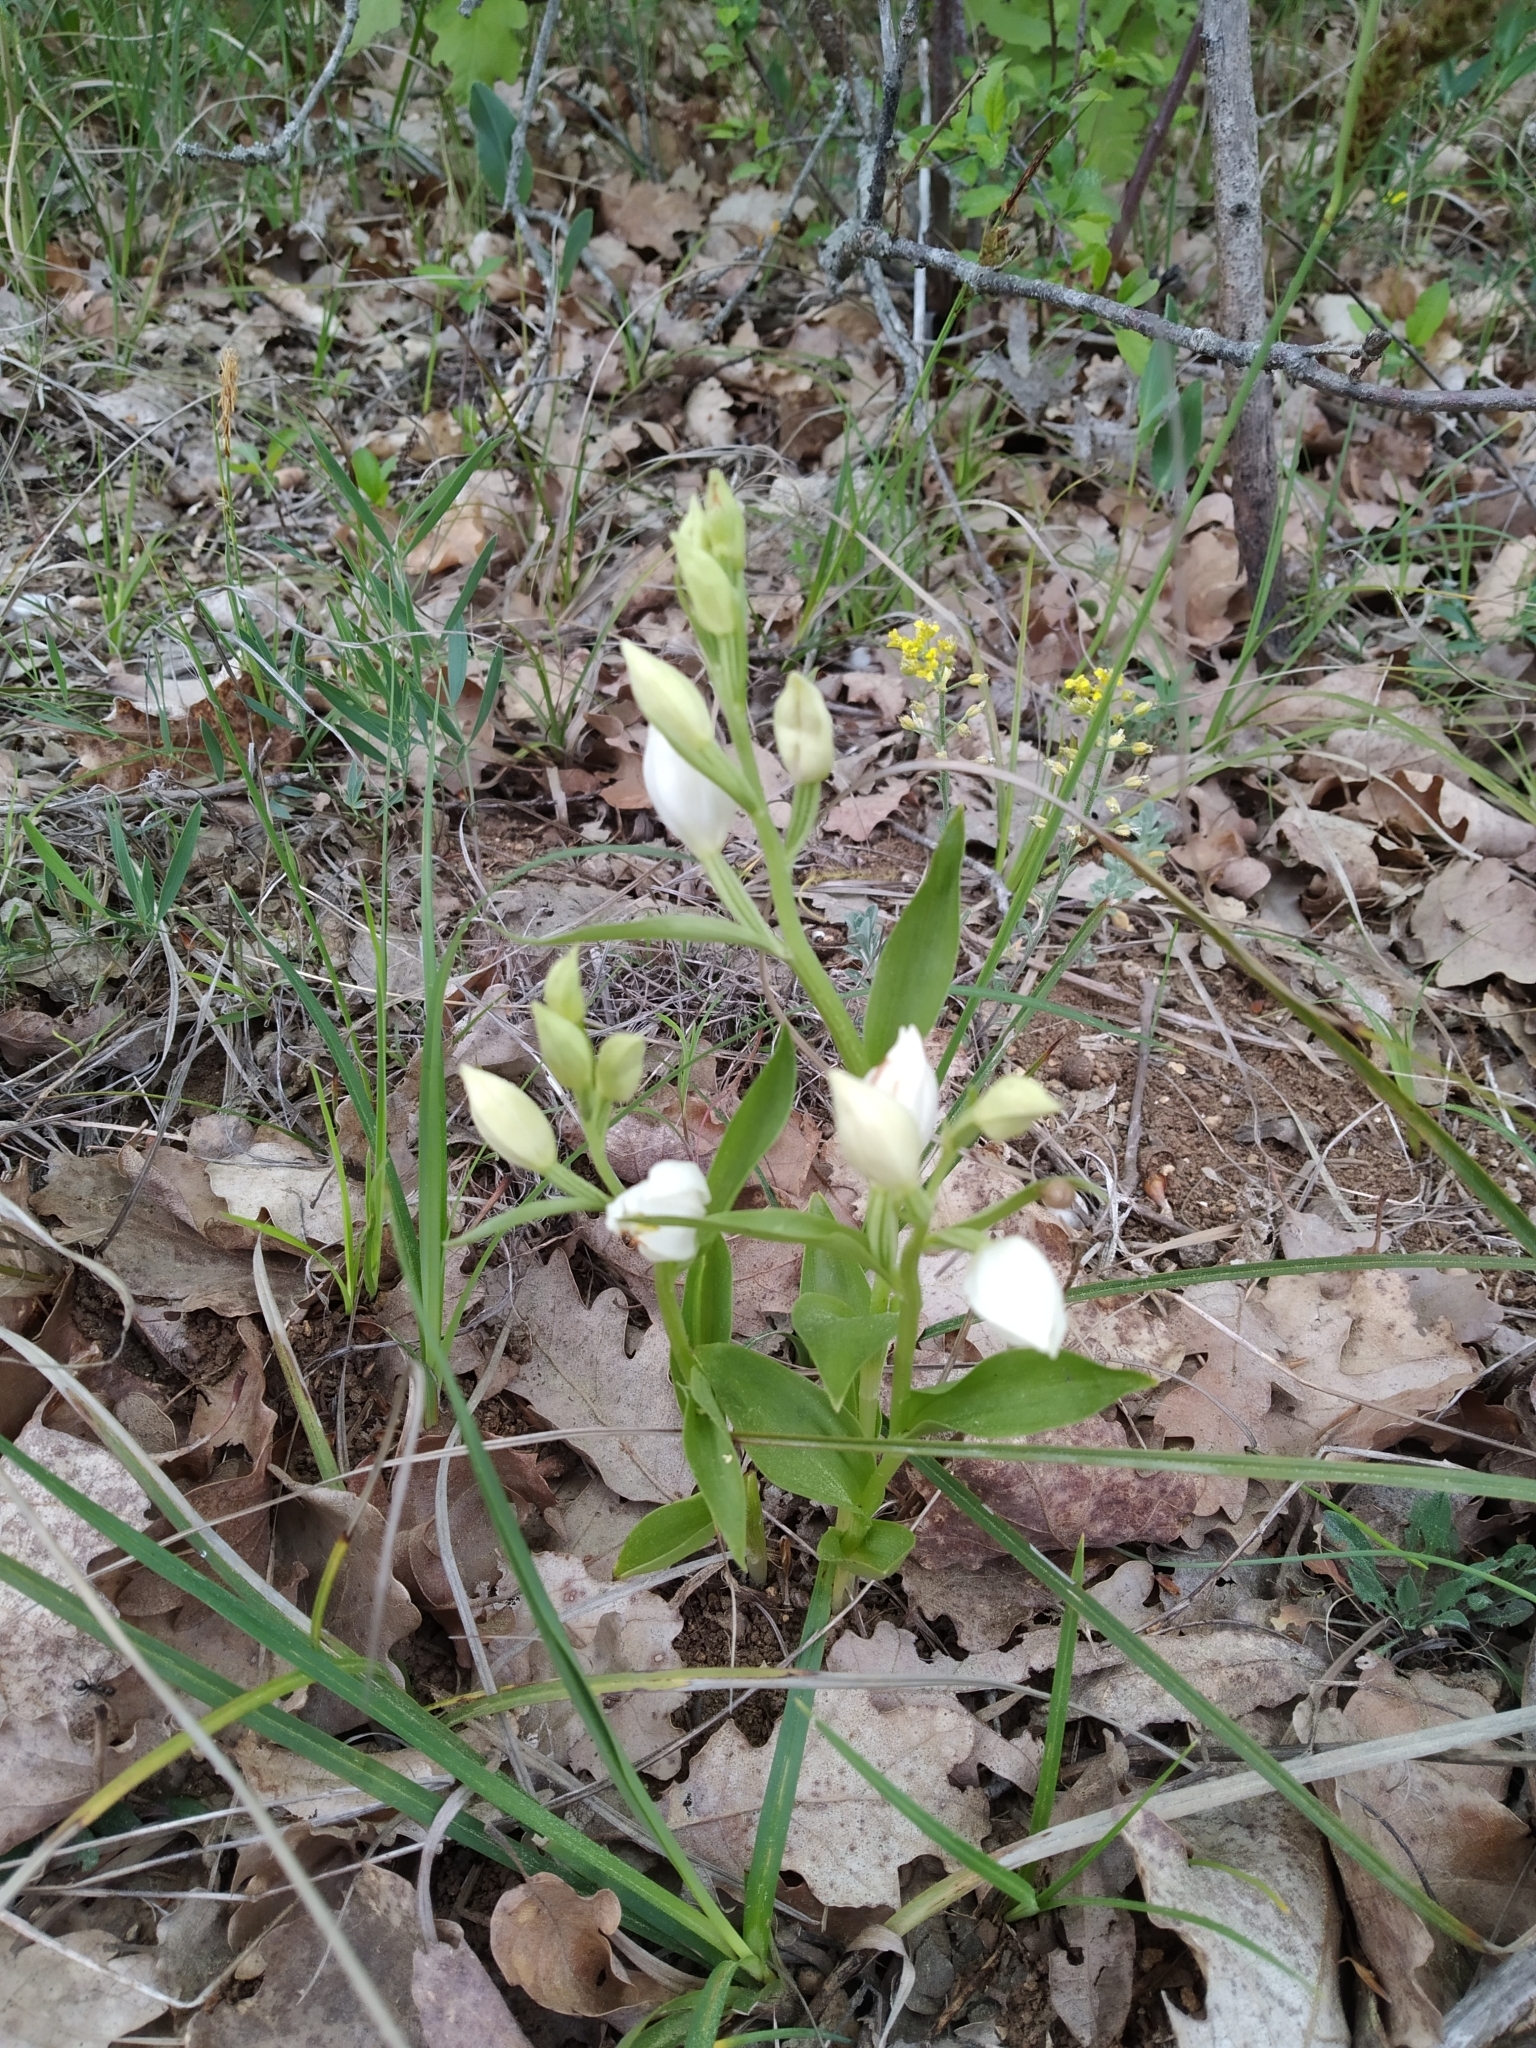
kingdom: Plantae
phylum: Tracheophyta
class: Liliopsida
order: Asparagales
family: Orchidaceae
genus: Cephalanthera
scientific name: Cephalanthera damasonium
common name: White helleborine
